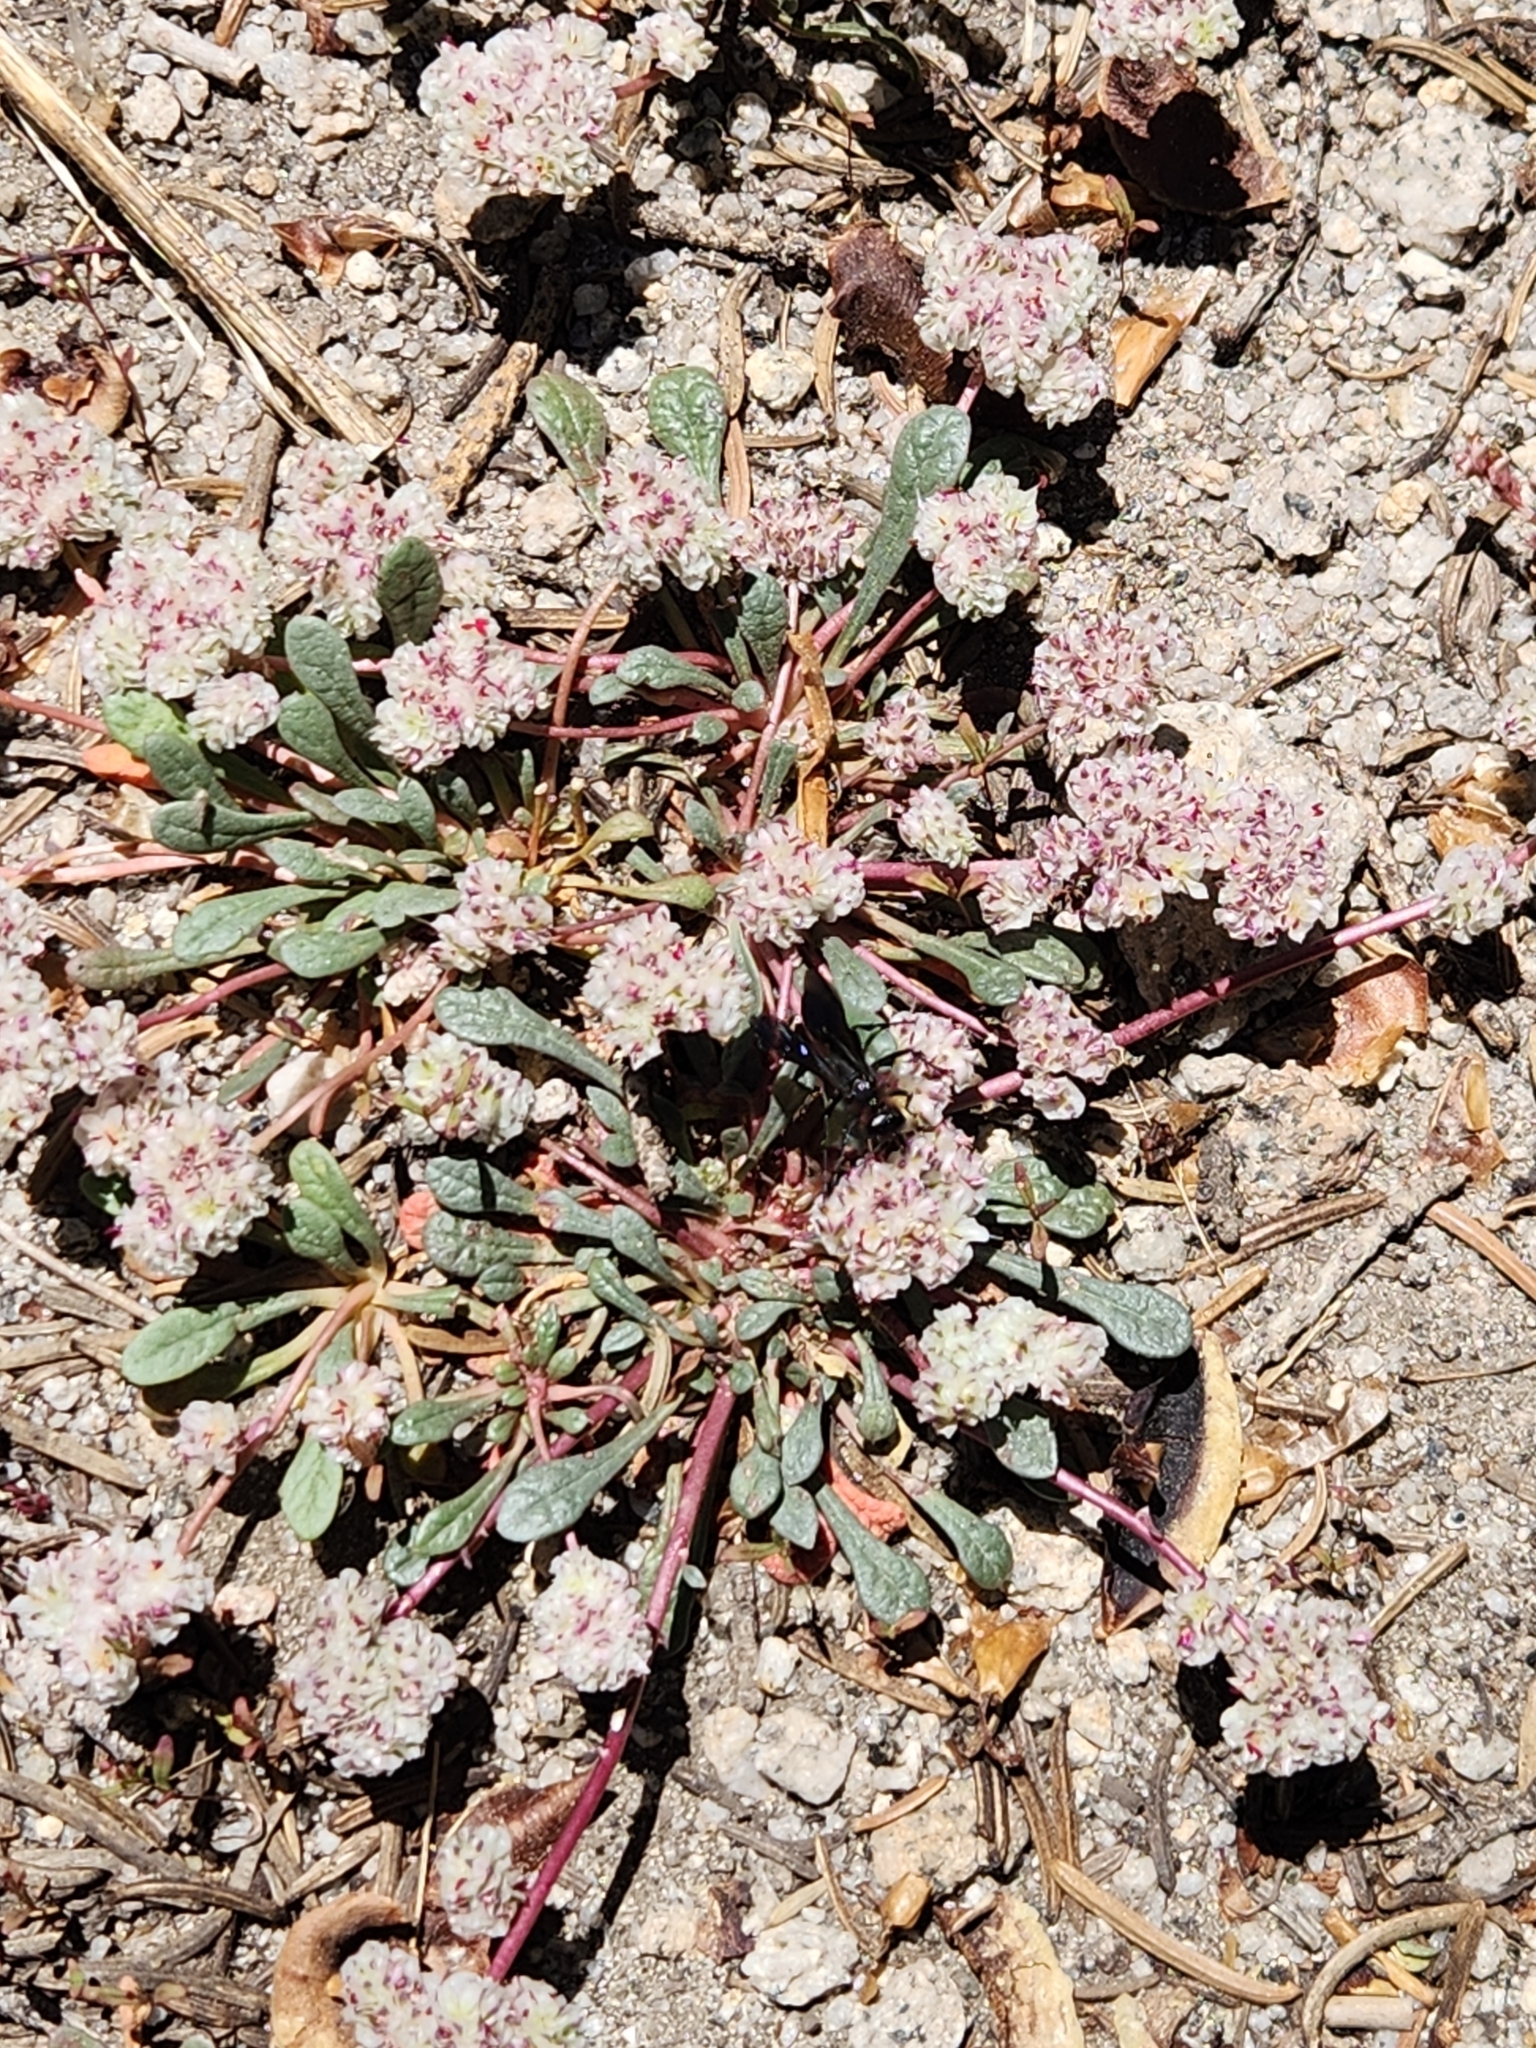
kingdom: Plantae
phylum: Tracheophyta
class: Magnoliopsida
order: Caryophyllales
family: Montiaceae
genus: Calyptridium
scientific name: Calyptridium monospermum
